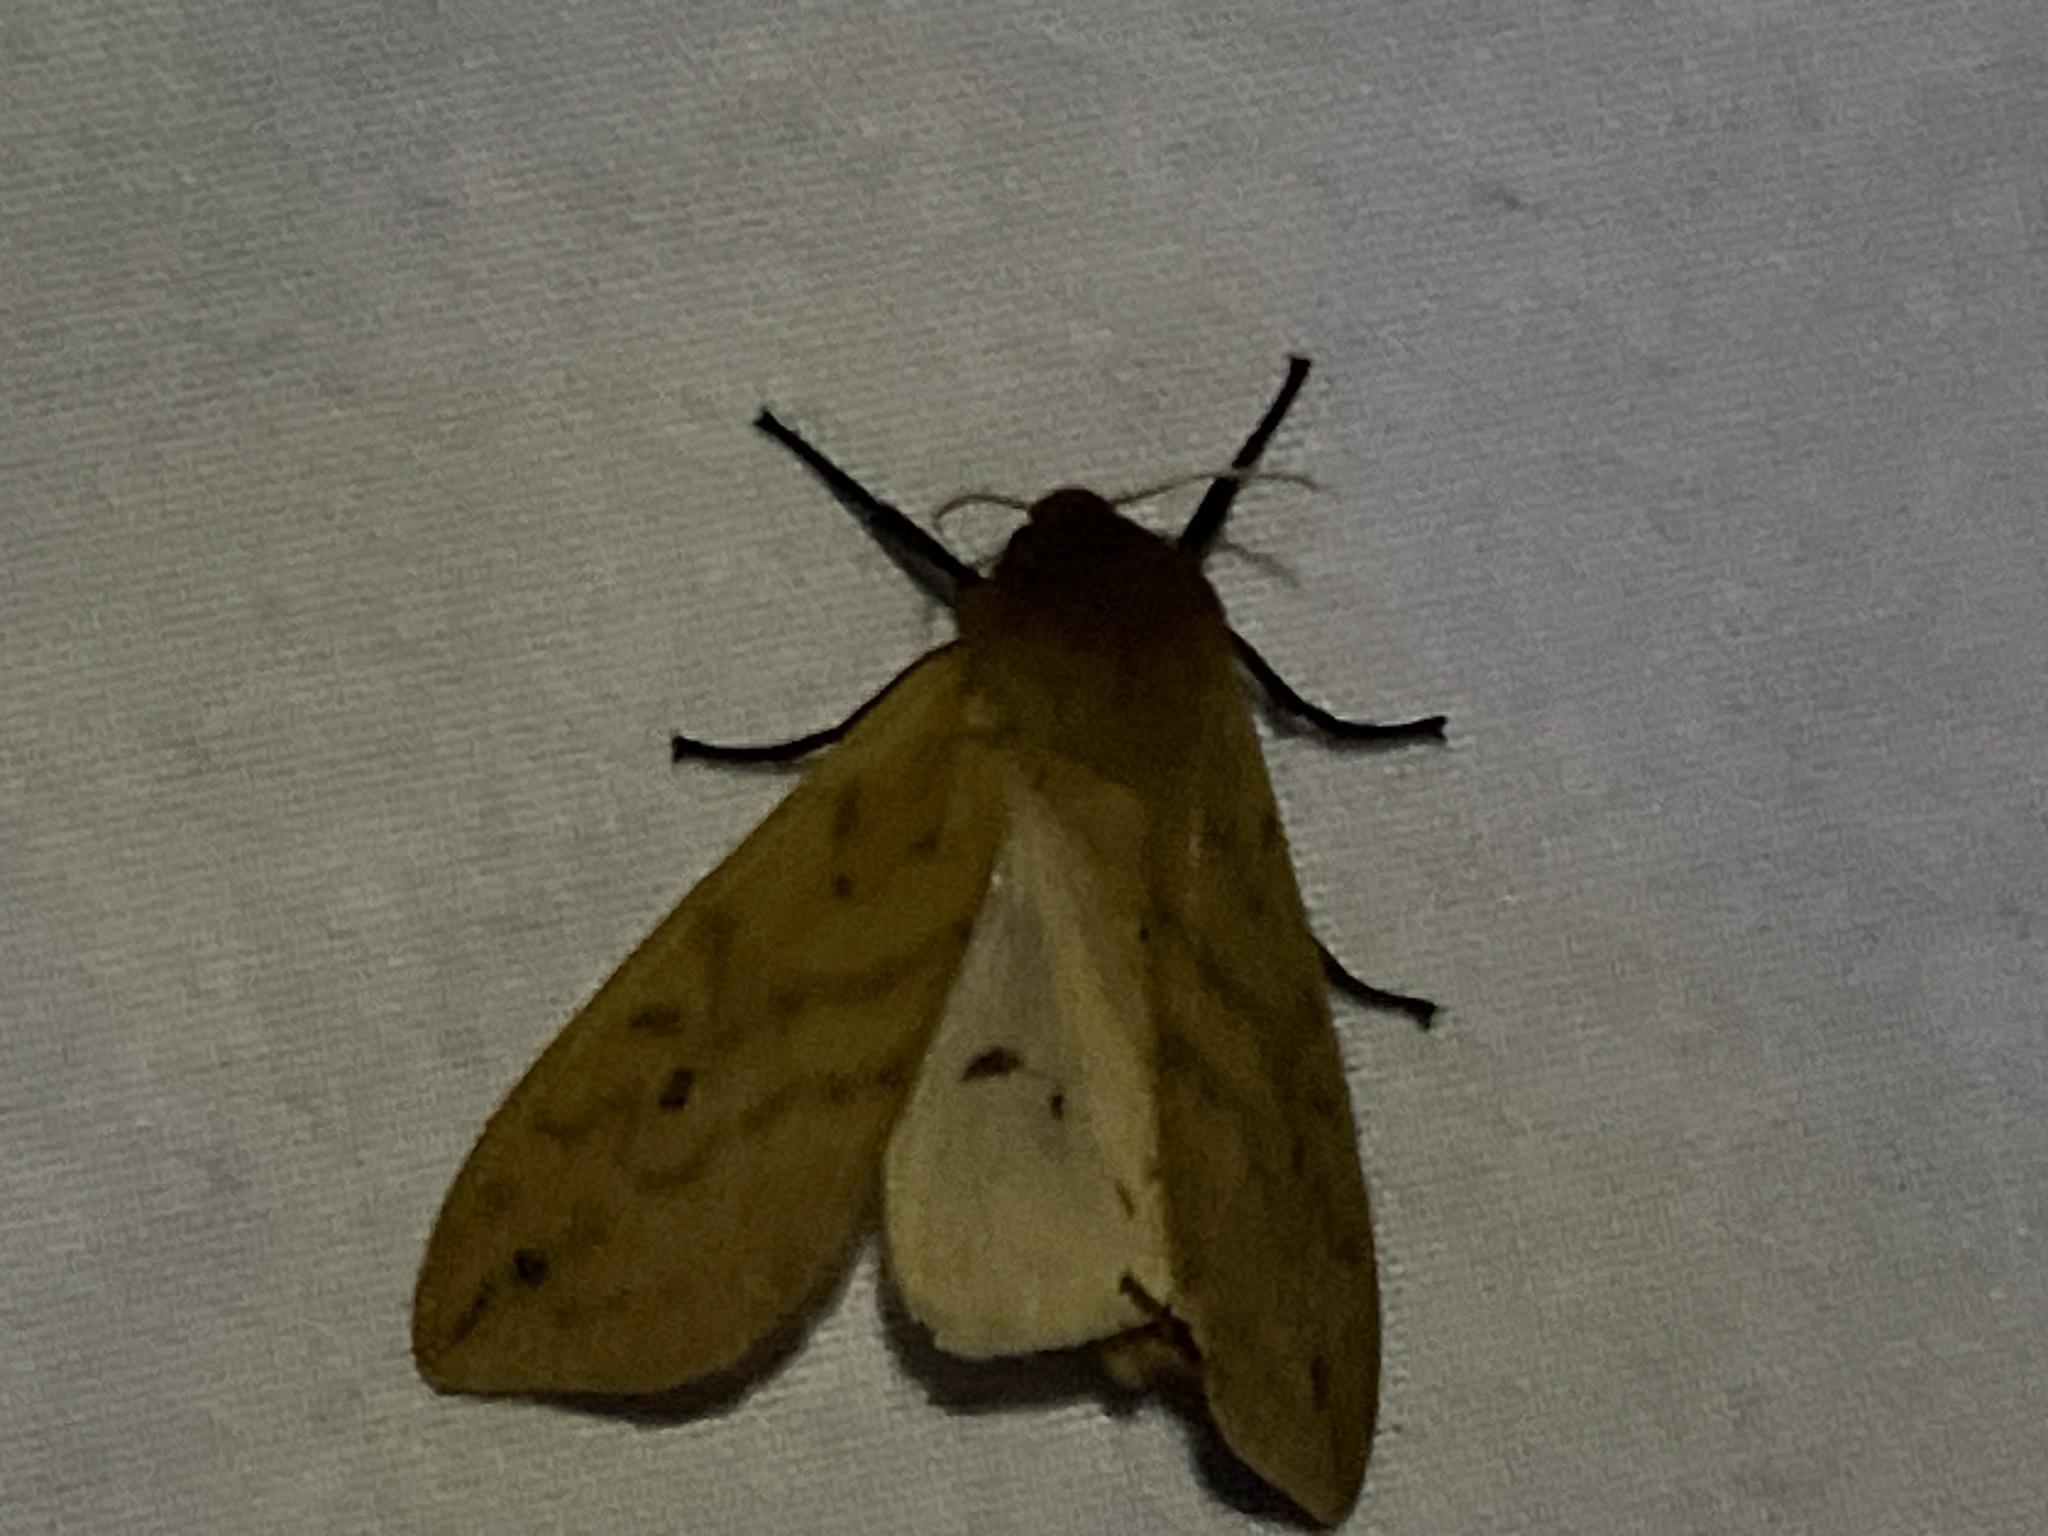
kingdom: Animalia
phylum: Arthropoda
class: Insecta
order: Lepidoptera
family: Erebidae
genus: Pyrrharctia
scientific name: Pyrrharctia isabella
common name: Isabella tiger moth
